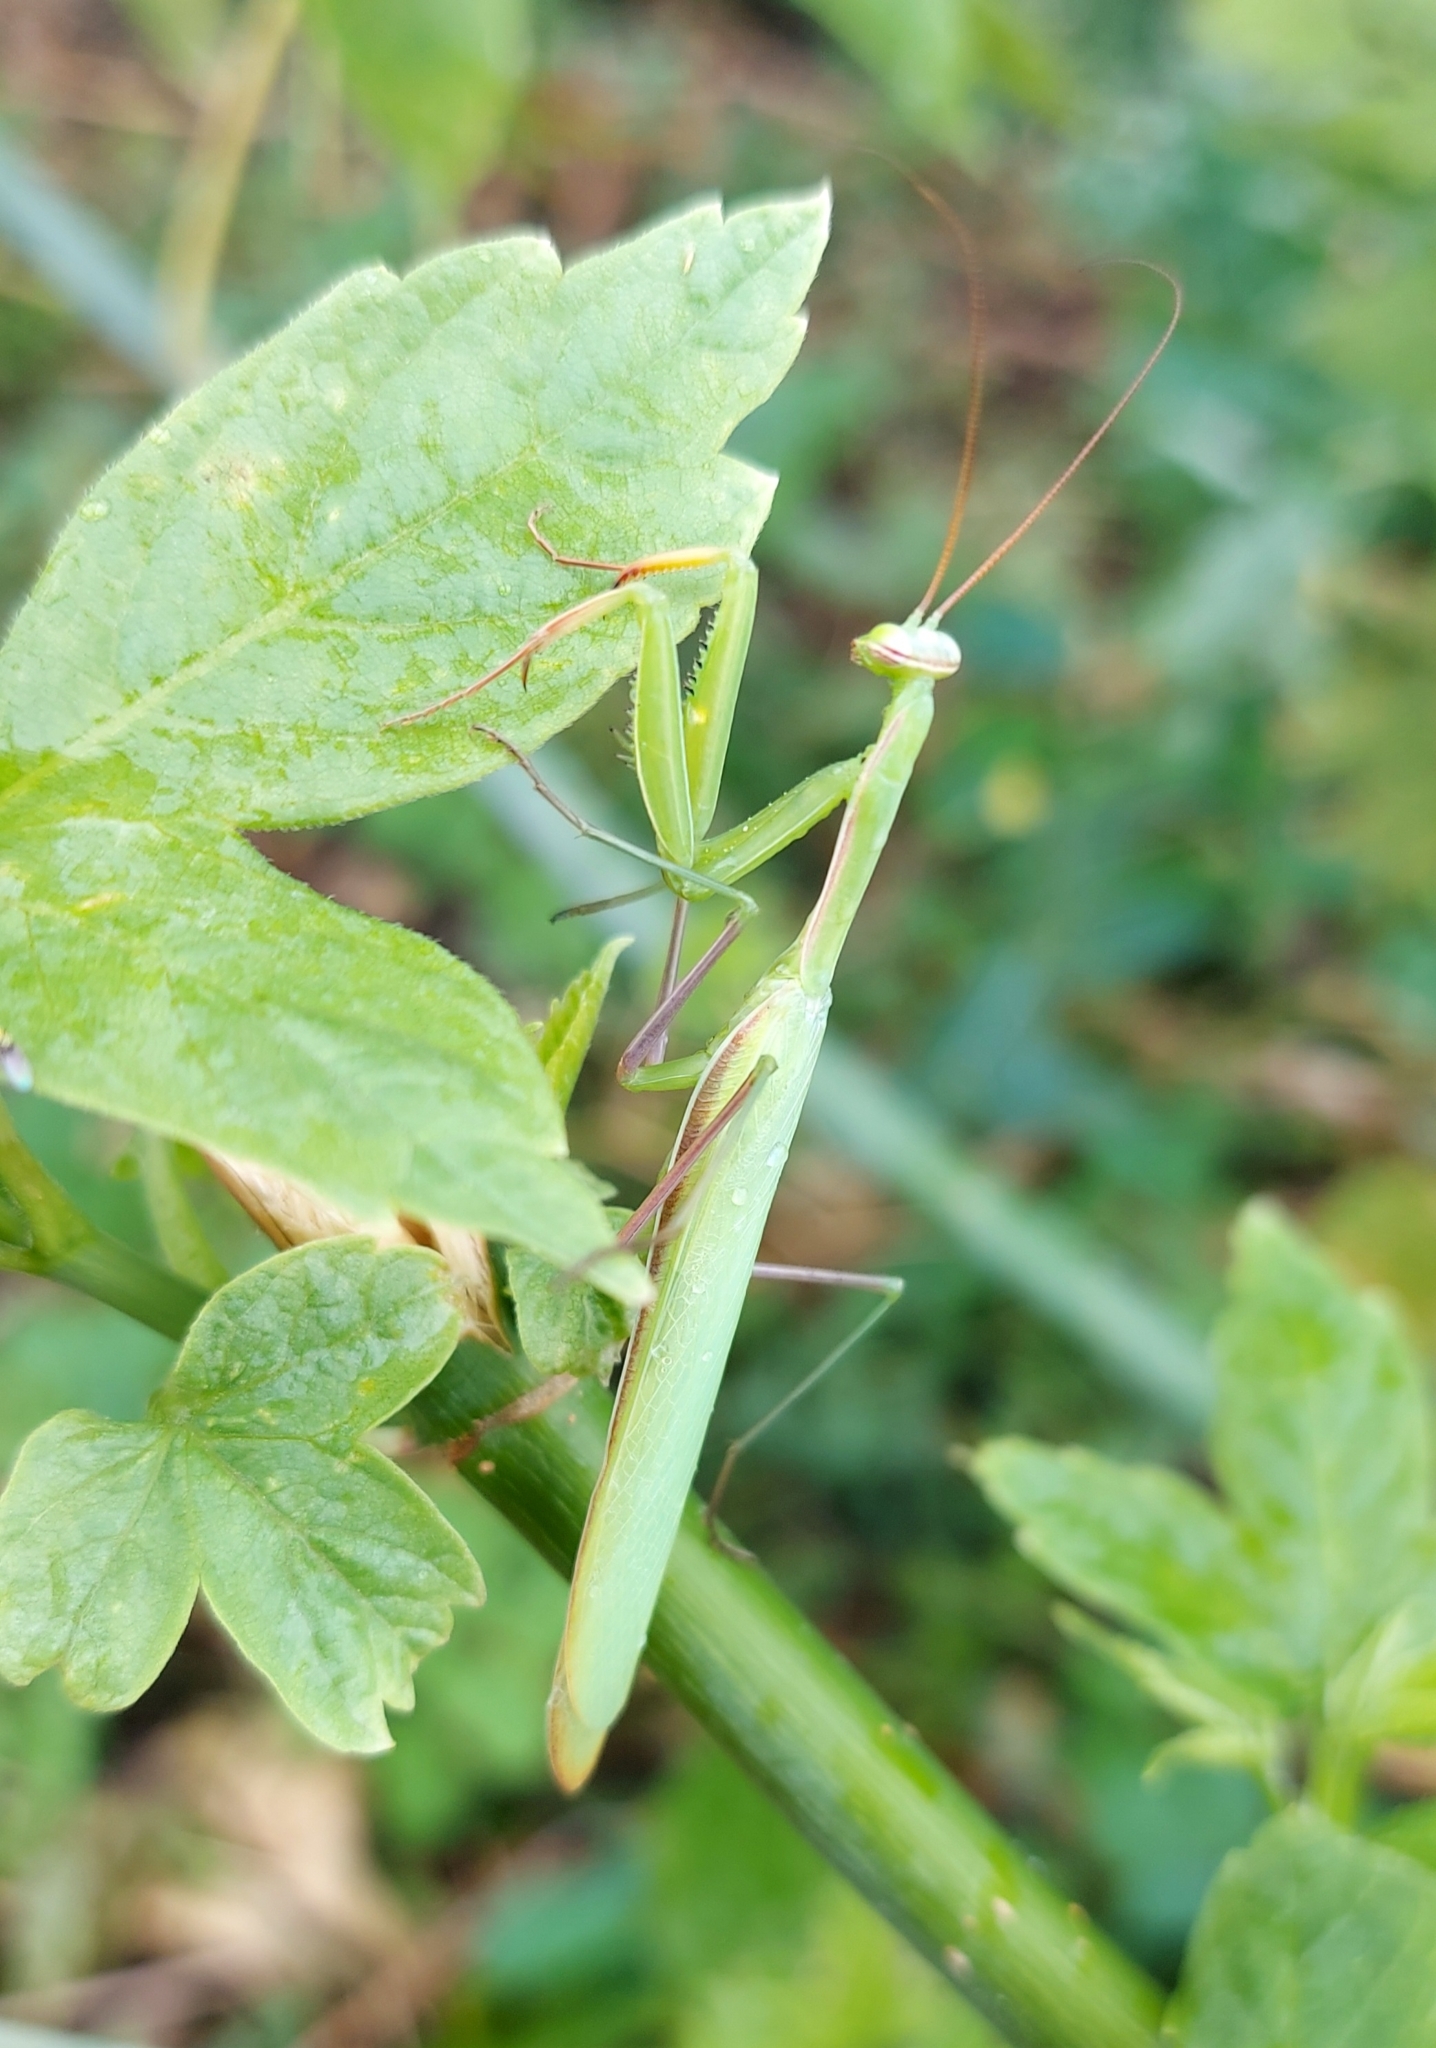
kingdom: Animalia
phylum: Arthropoda
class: Insecta
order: Mantodea
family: Mantidae
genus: Mantis
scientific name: Mantis religiosa
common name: Praying mantis
